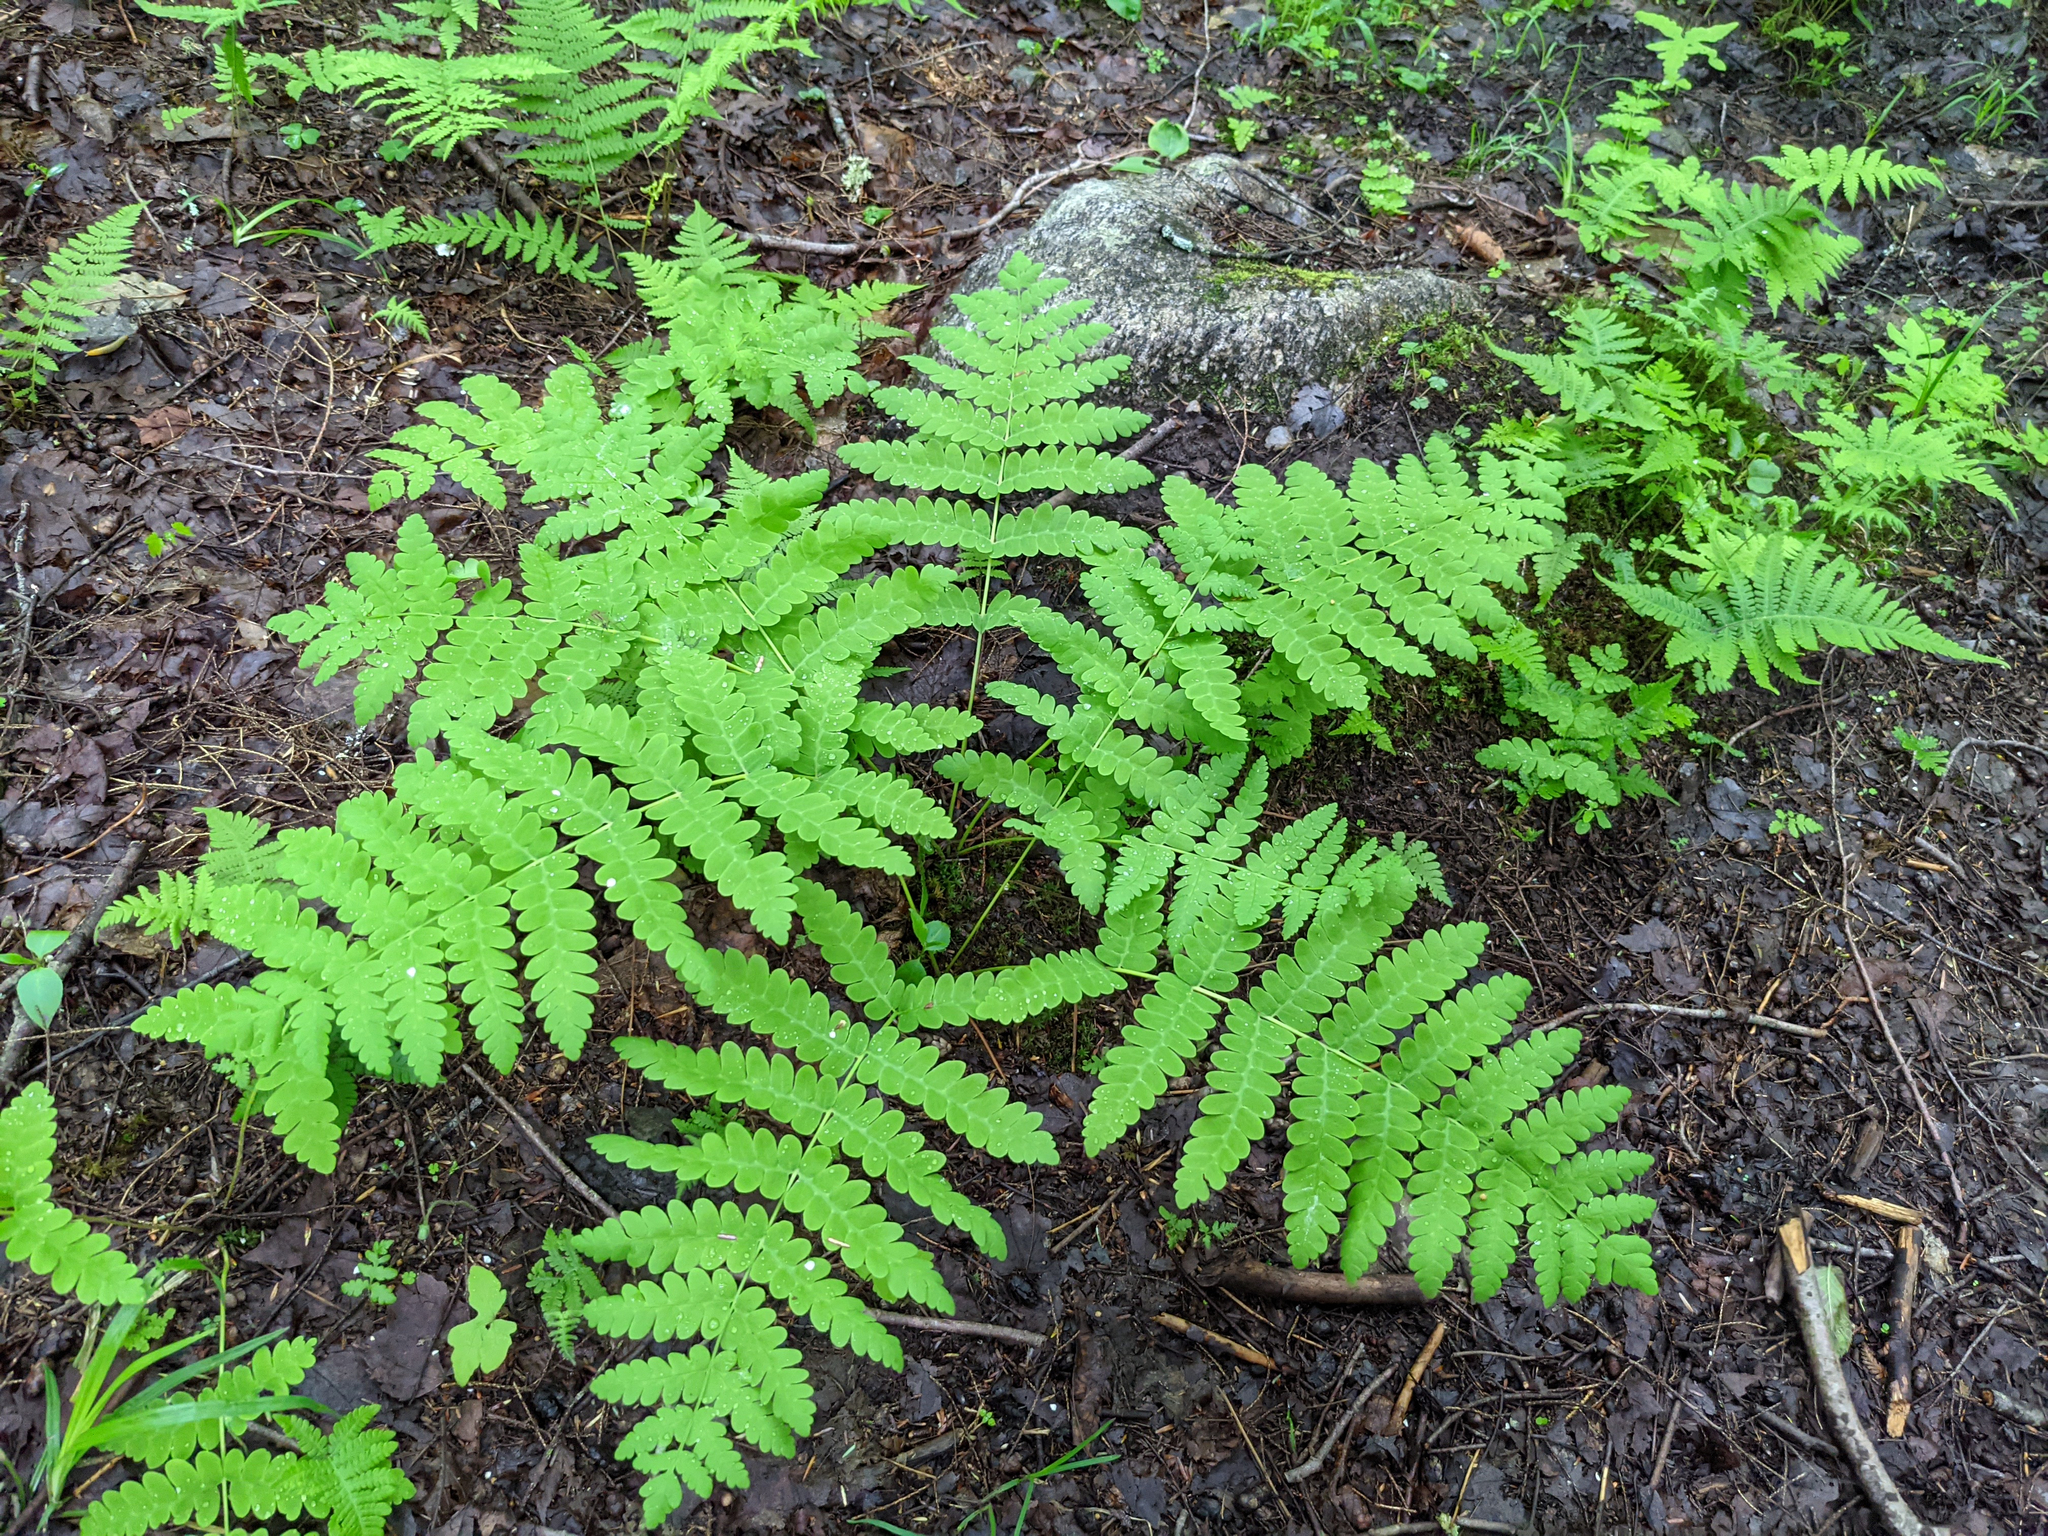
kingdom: Plantae
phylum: Tracheophyta
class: Polypodiopsida
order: Osmundales
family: Osmundaceae
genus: Claytosmunda
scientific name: Claytosmunda claytoniana
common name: Clayton's fern
